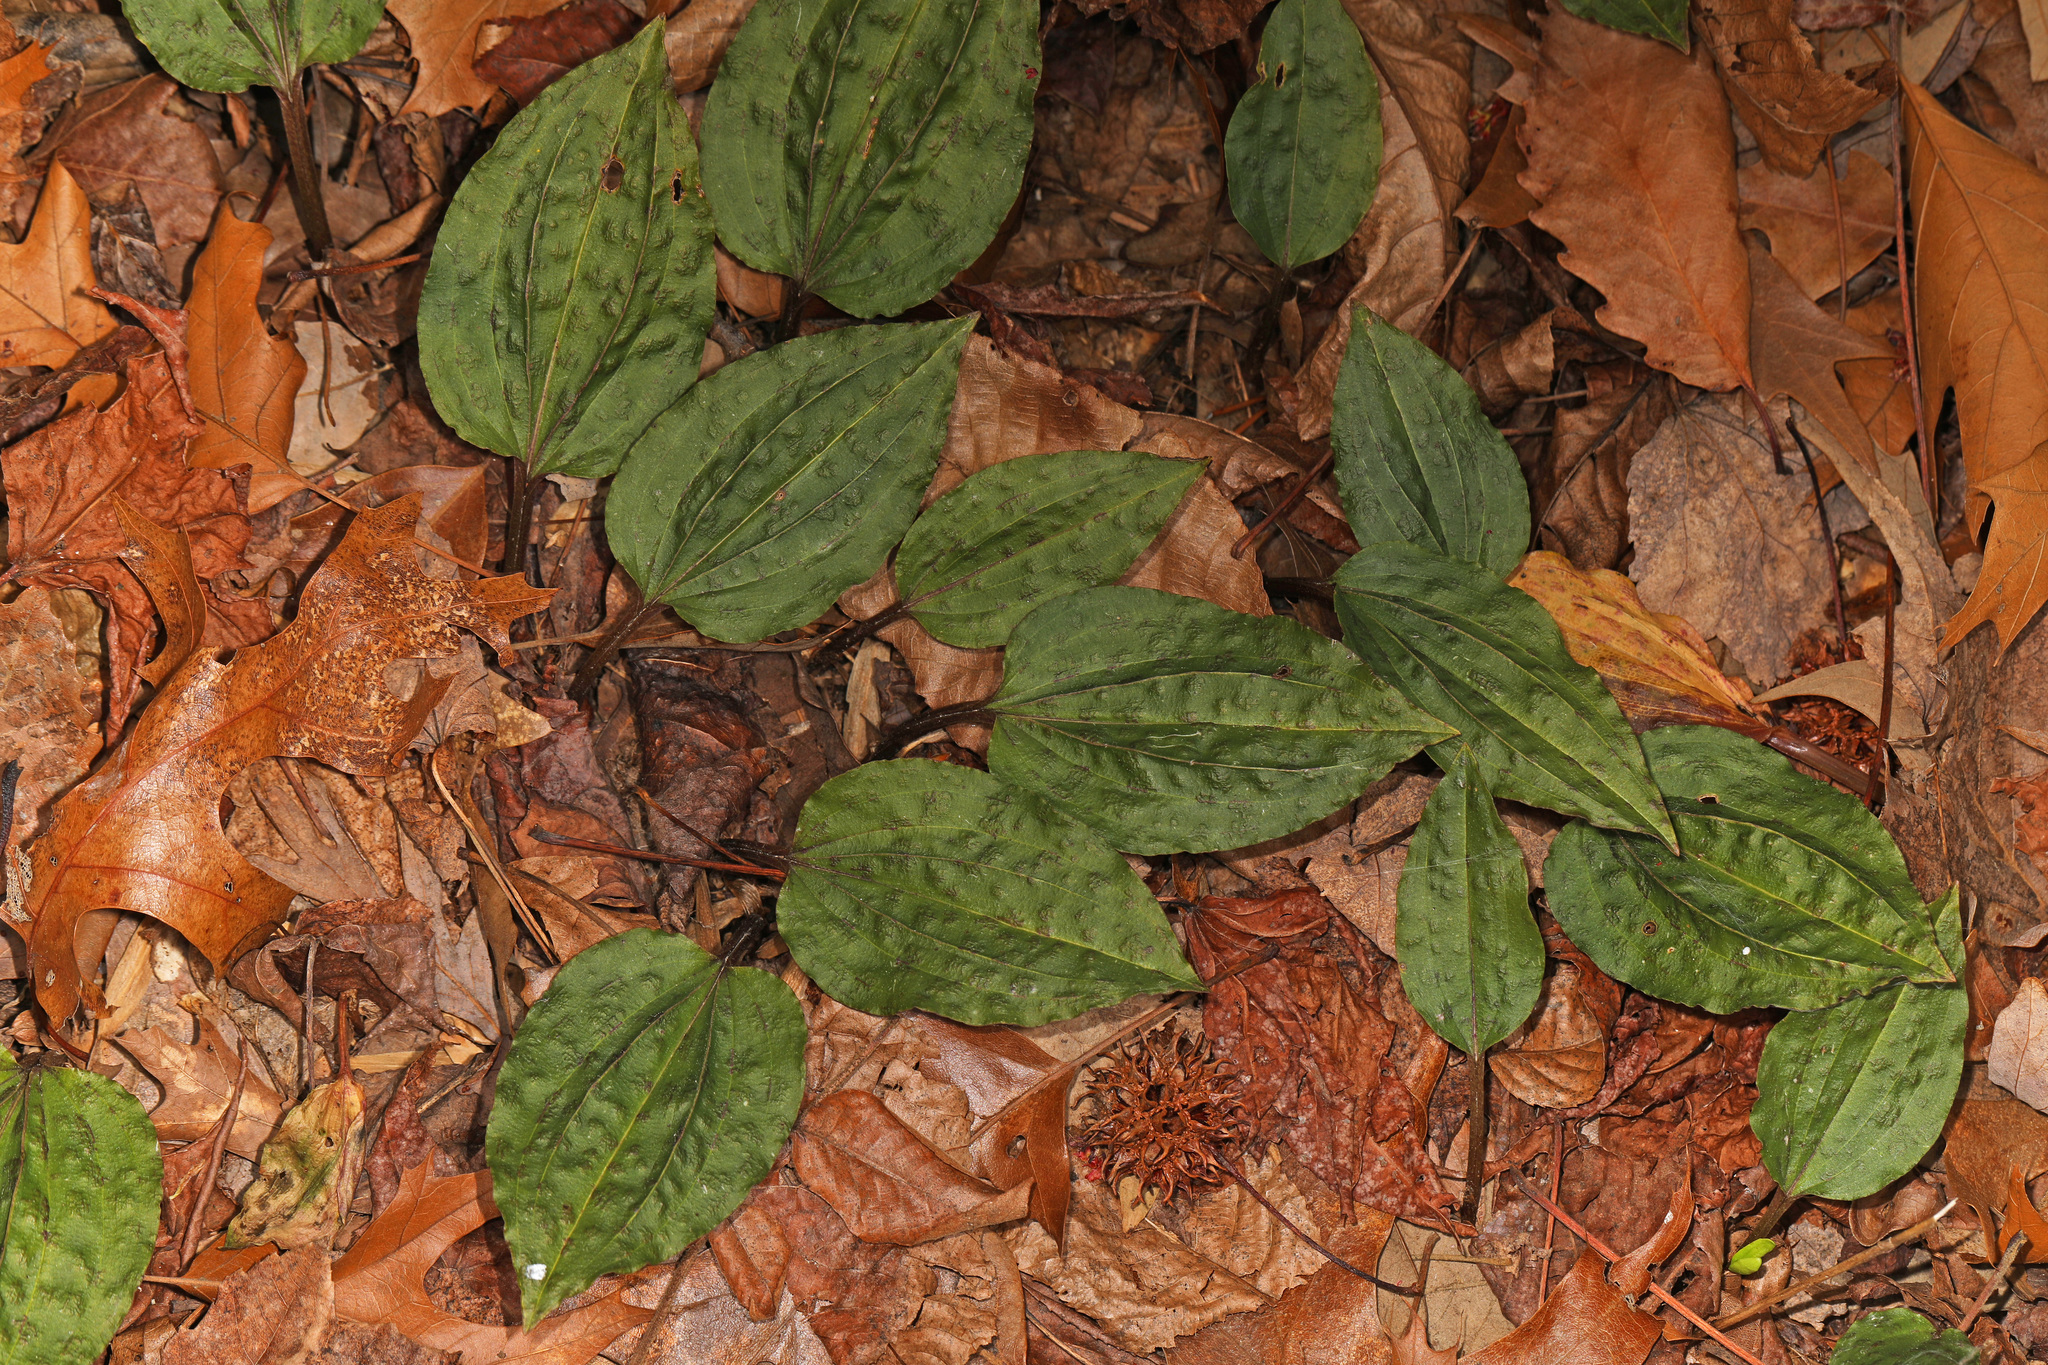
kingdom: Plantae
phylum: Tracheophyta
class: Liliopsida
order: Asparagales
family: Orchidaceae
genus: Tipularia
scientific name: Tipularia discolor
